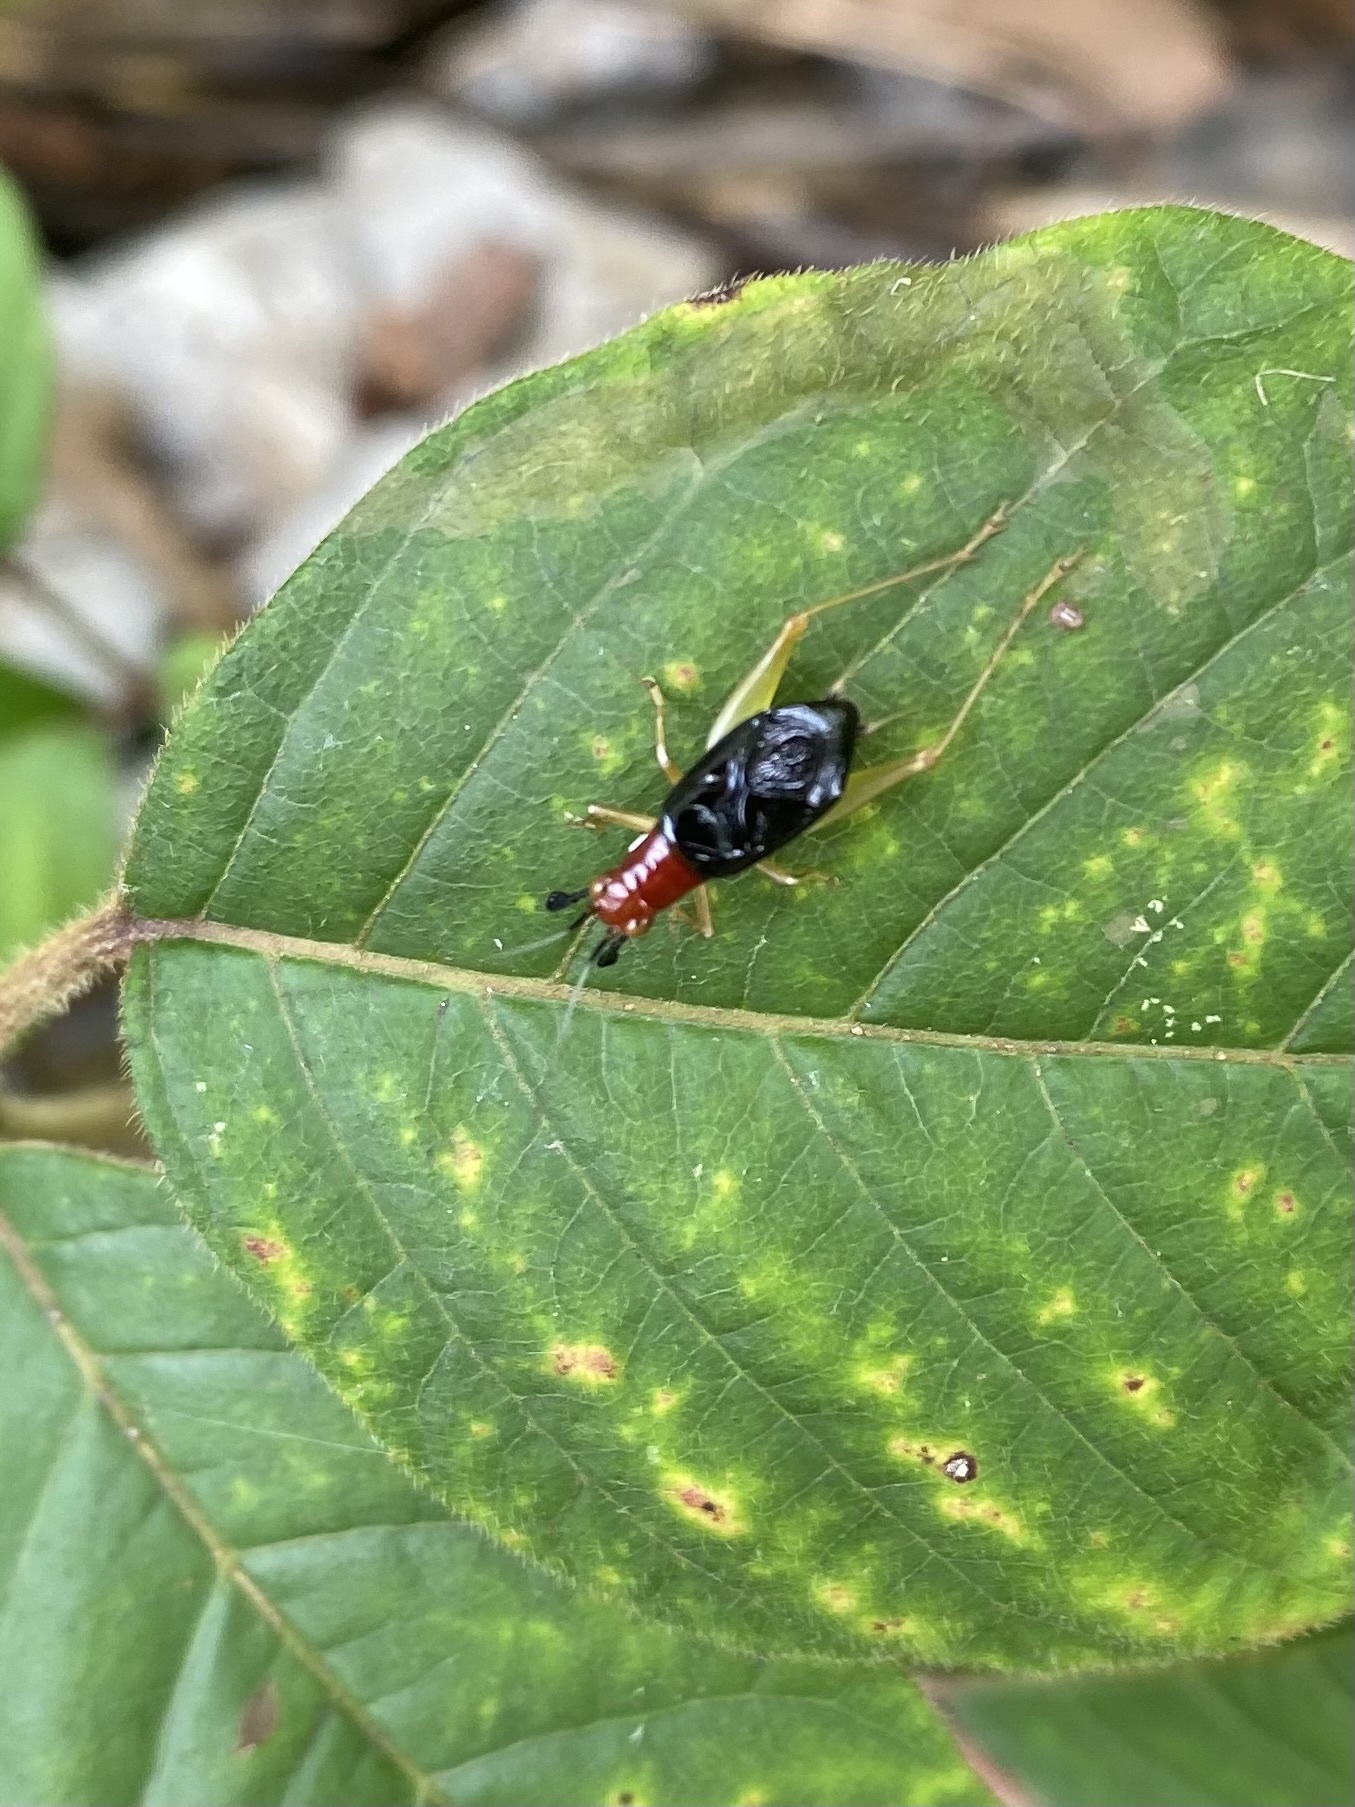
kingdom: Animalia
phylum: Arthropoda
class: Insecta
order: Orthoptera
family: Trigonidiidae
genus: Phyllopalpus
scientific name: Phyllopalpus pulchellus
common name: Handsome trig
